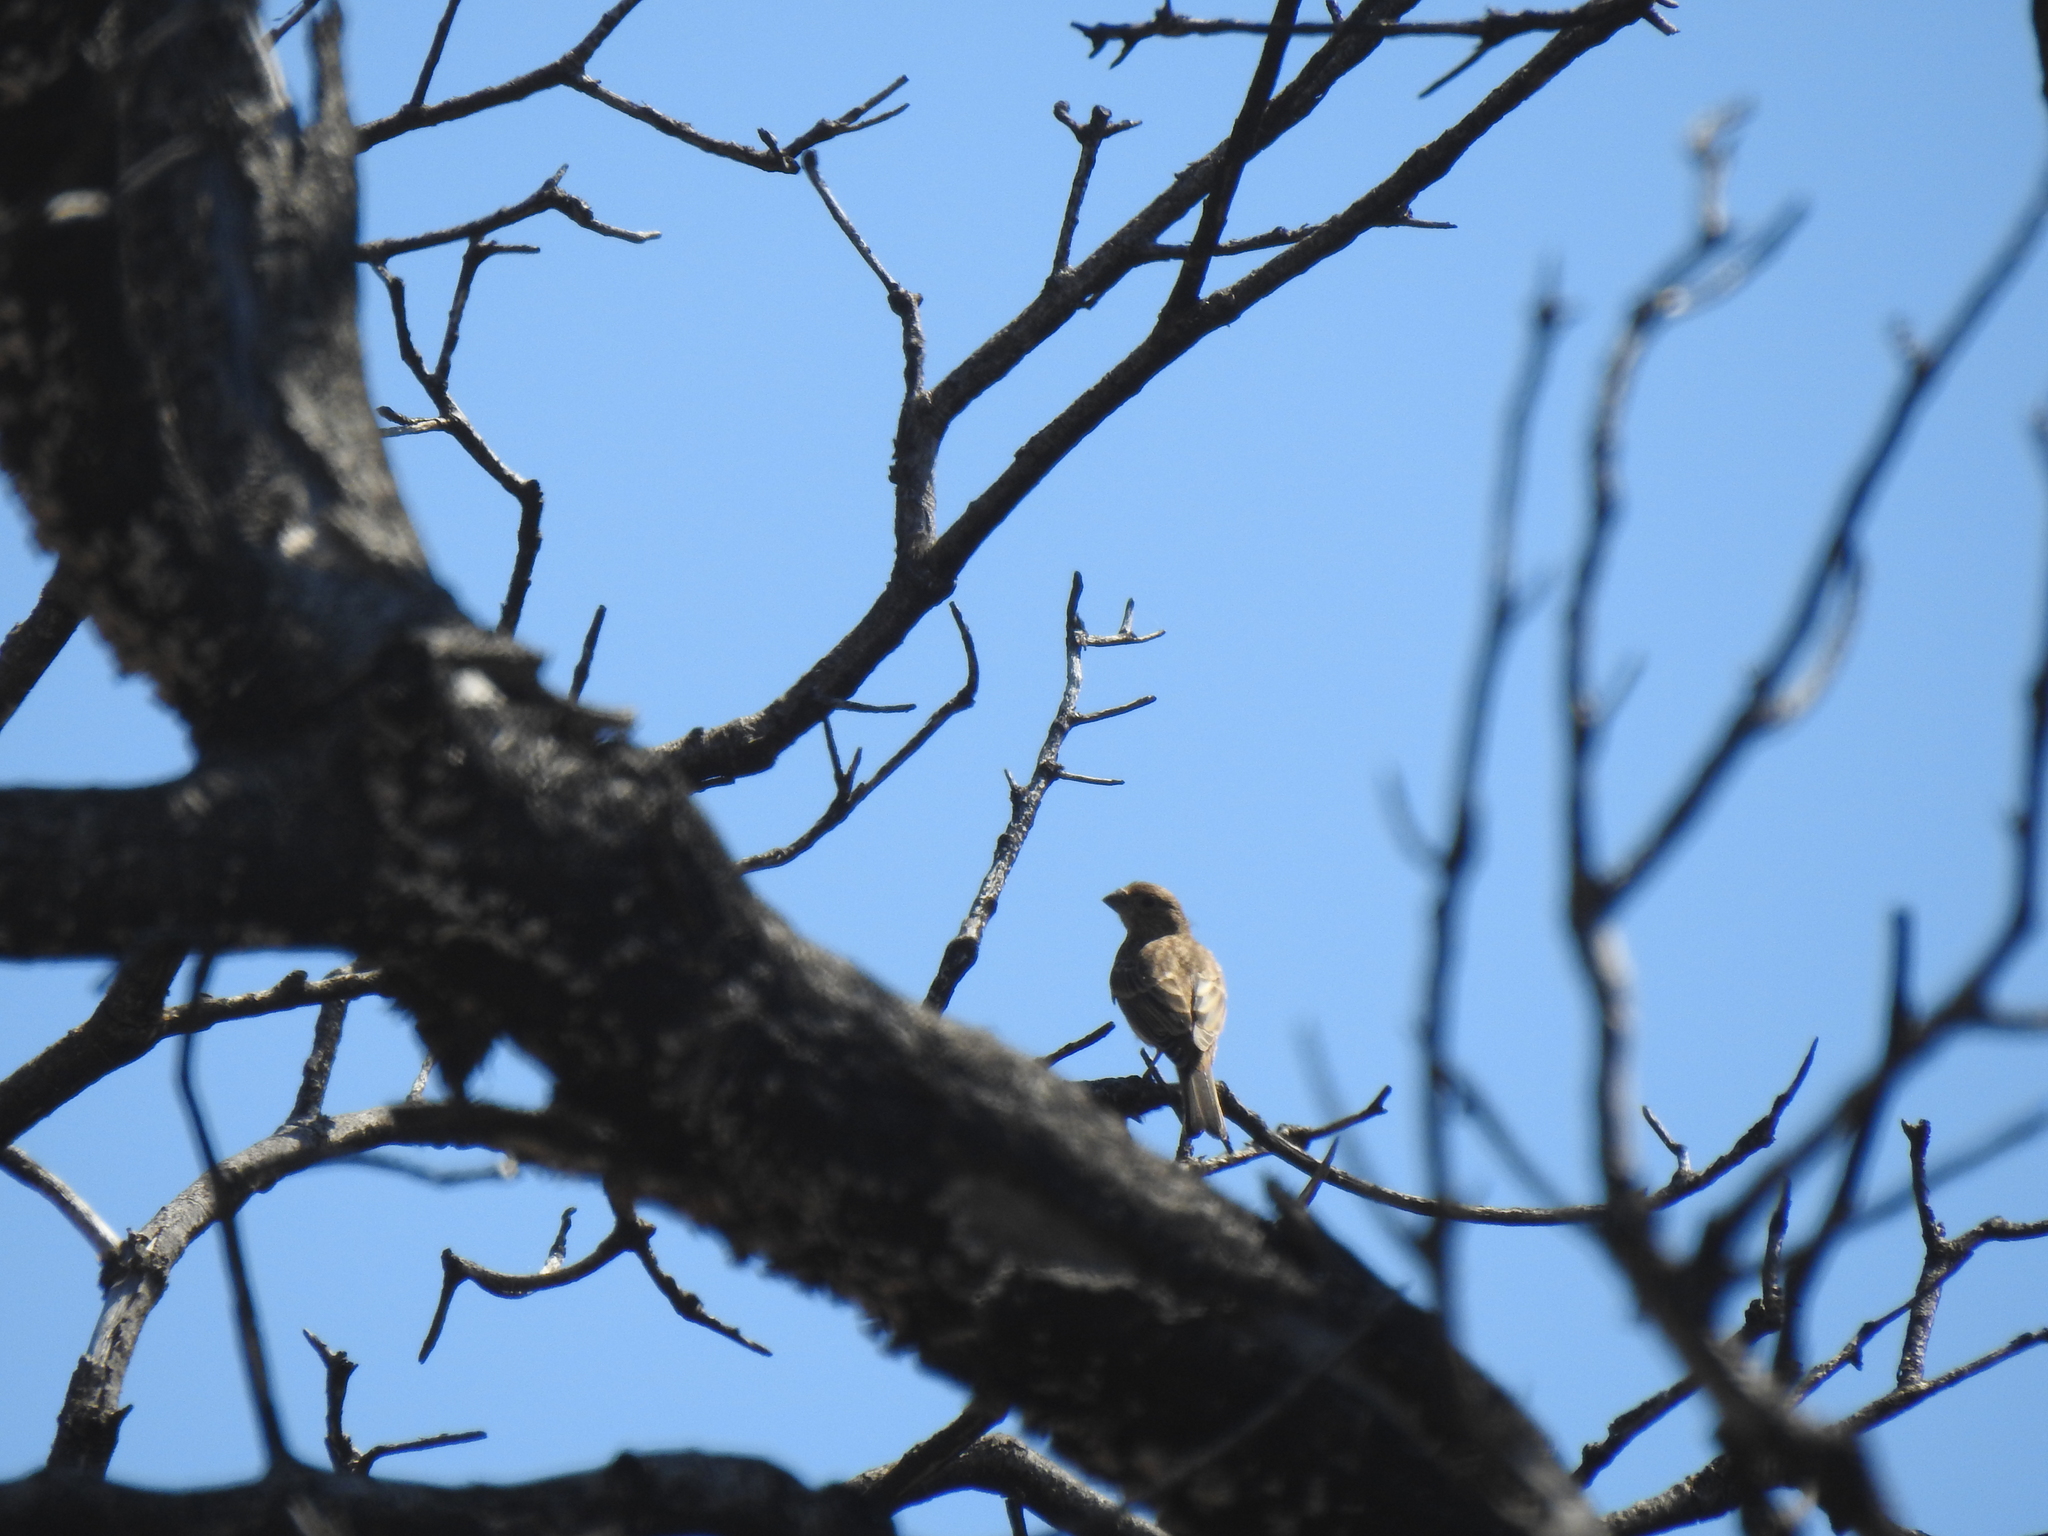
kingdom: Animalia
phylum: Chordata
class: Aves
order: Passeriformes
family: Fringillidae
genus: Haemorhous
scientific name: Haemorhous mexicanus
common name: House finch
